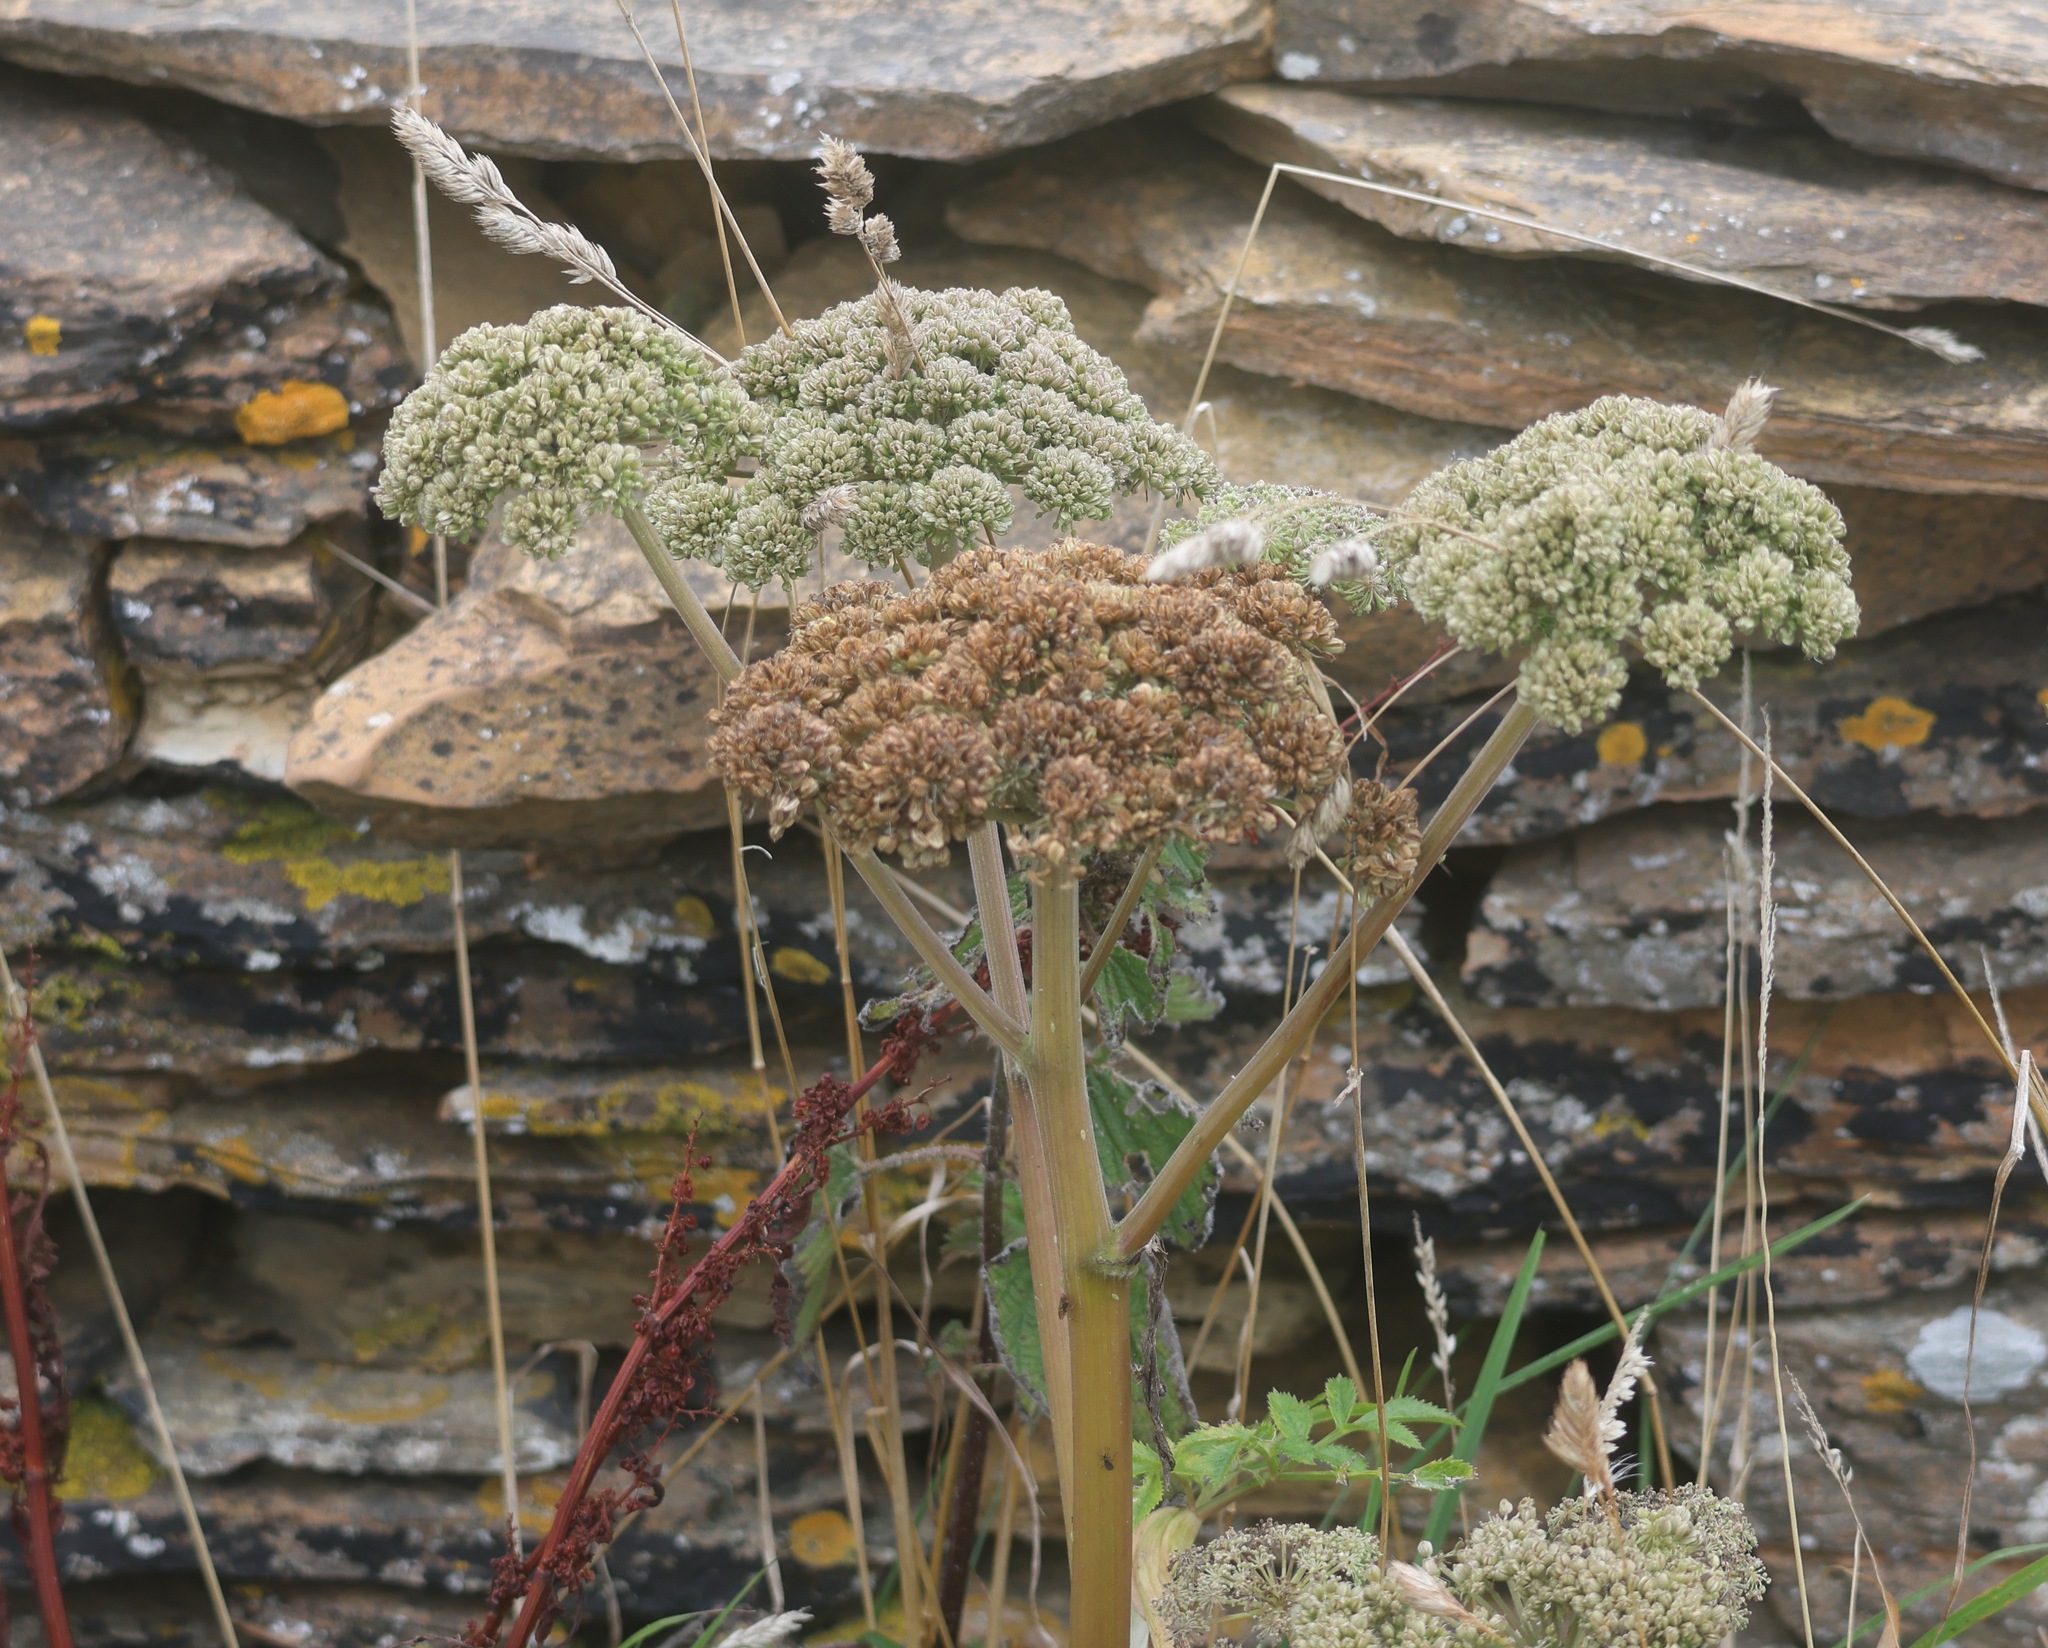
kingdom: Plantae
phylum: Tracheophyta
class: Magnoliopsida
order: Apiales
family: Apiaceae
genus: Angelica
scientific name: Angelica sylvestris
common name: Wild angelica
